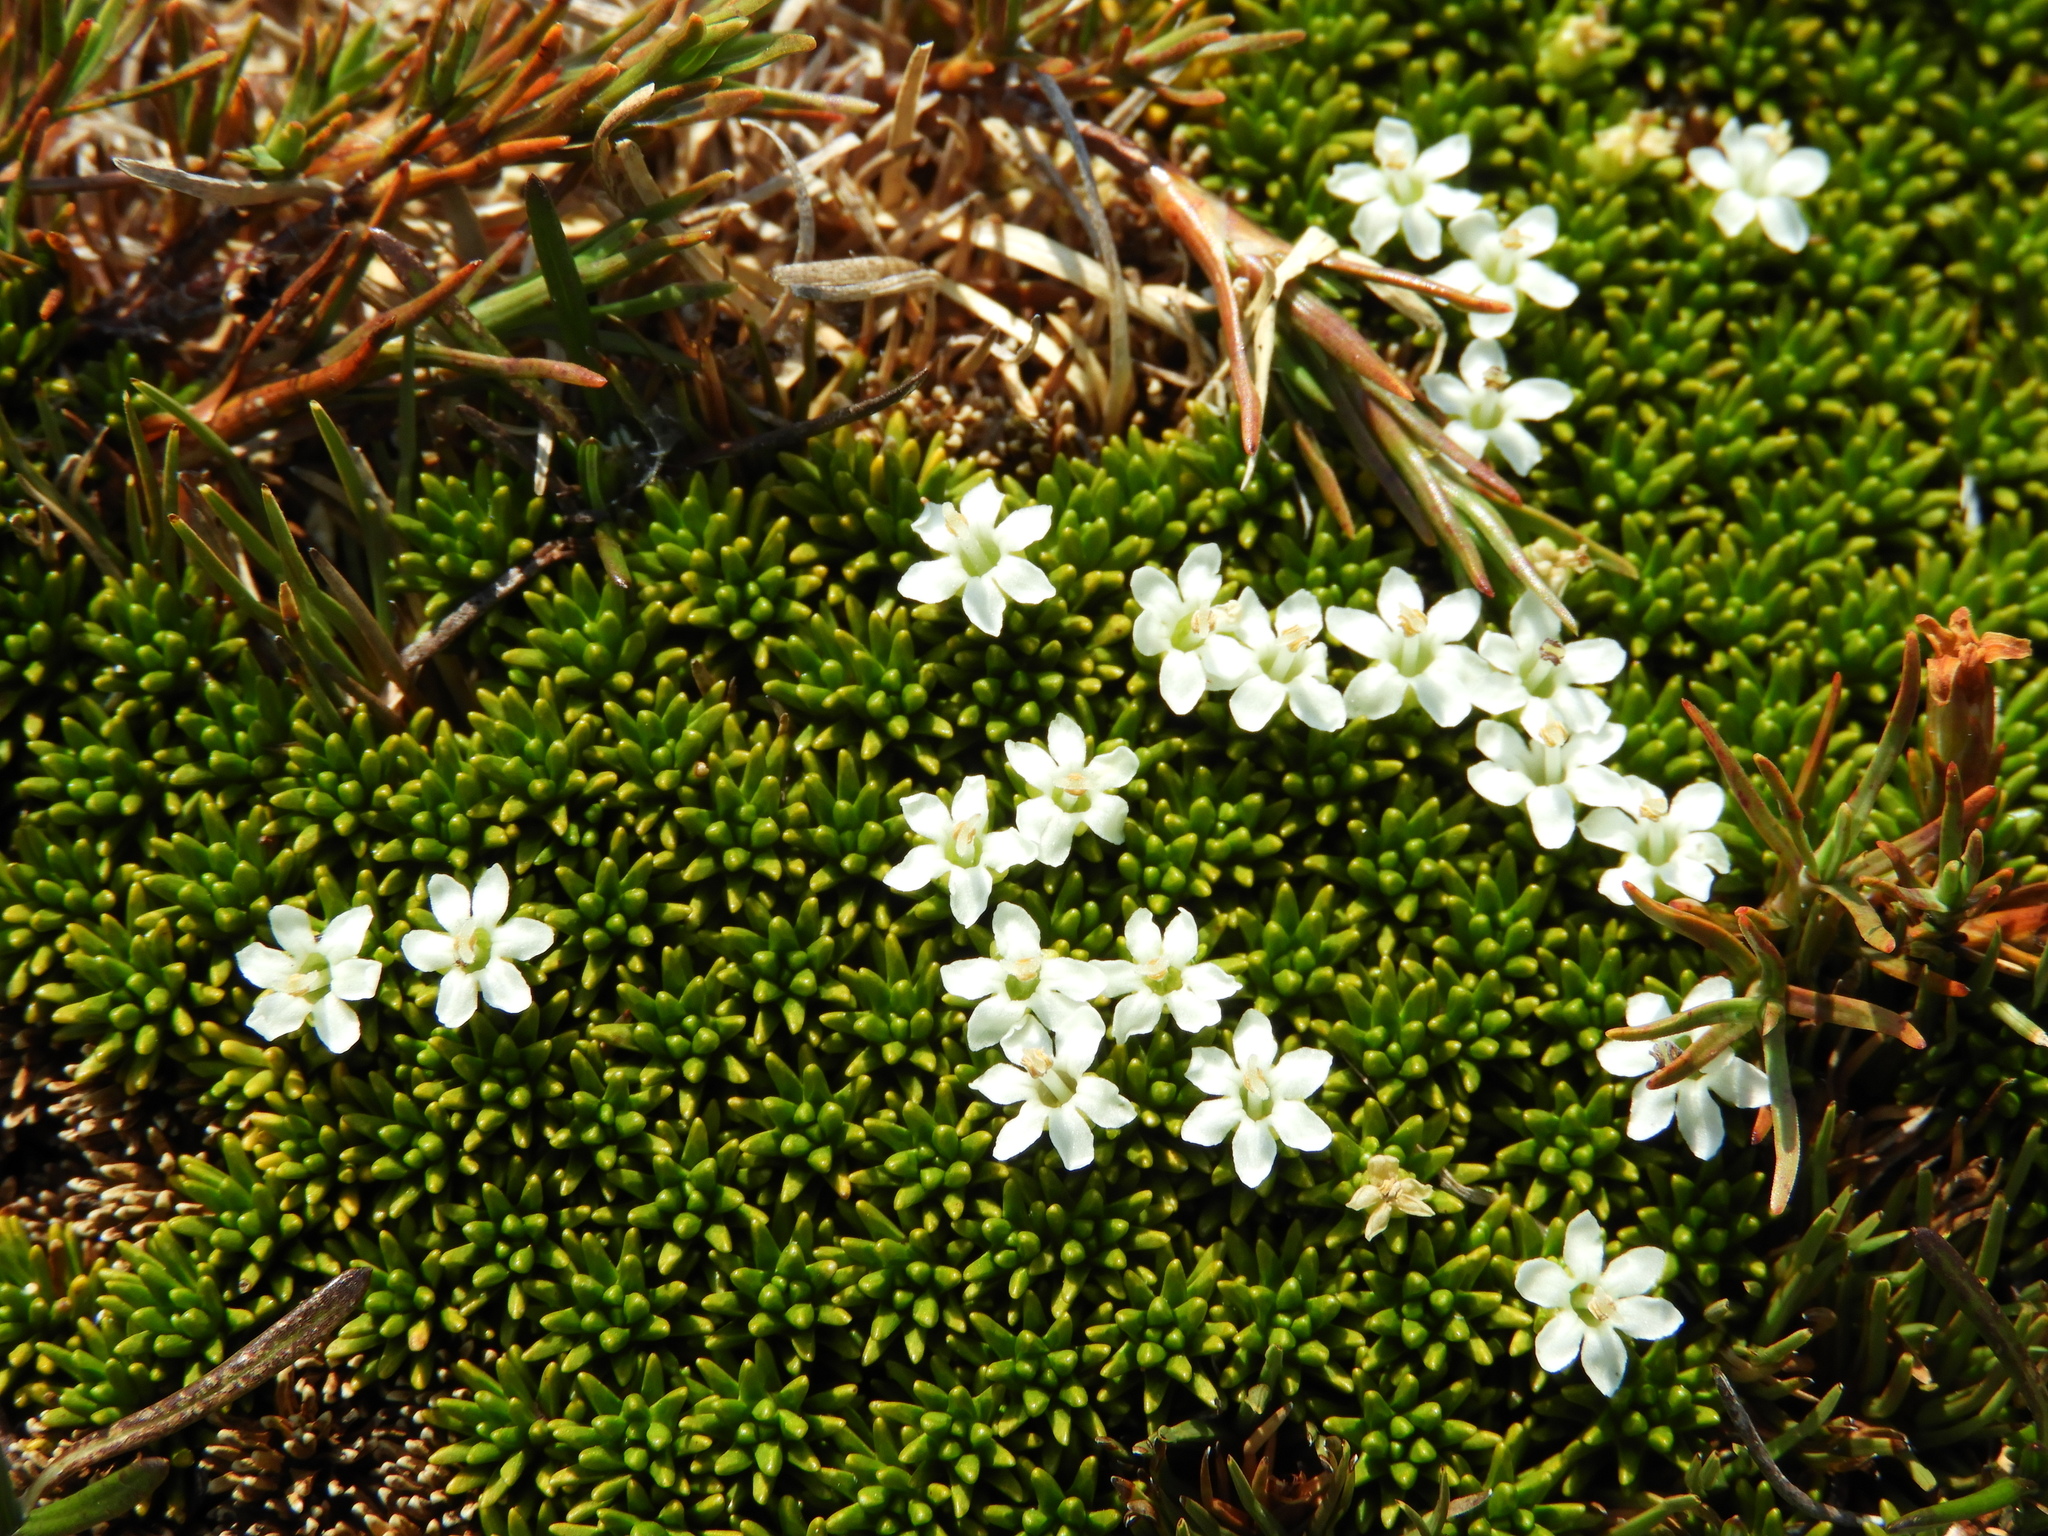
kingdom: Plantae
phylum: Tracheophyta
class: Magnoliopsida
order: Asterales
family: Stylidiaceae
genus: Phyllachne
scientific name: Phyllachne colensoi
